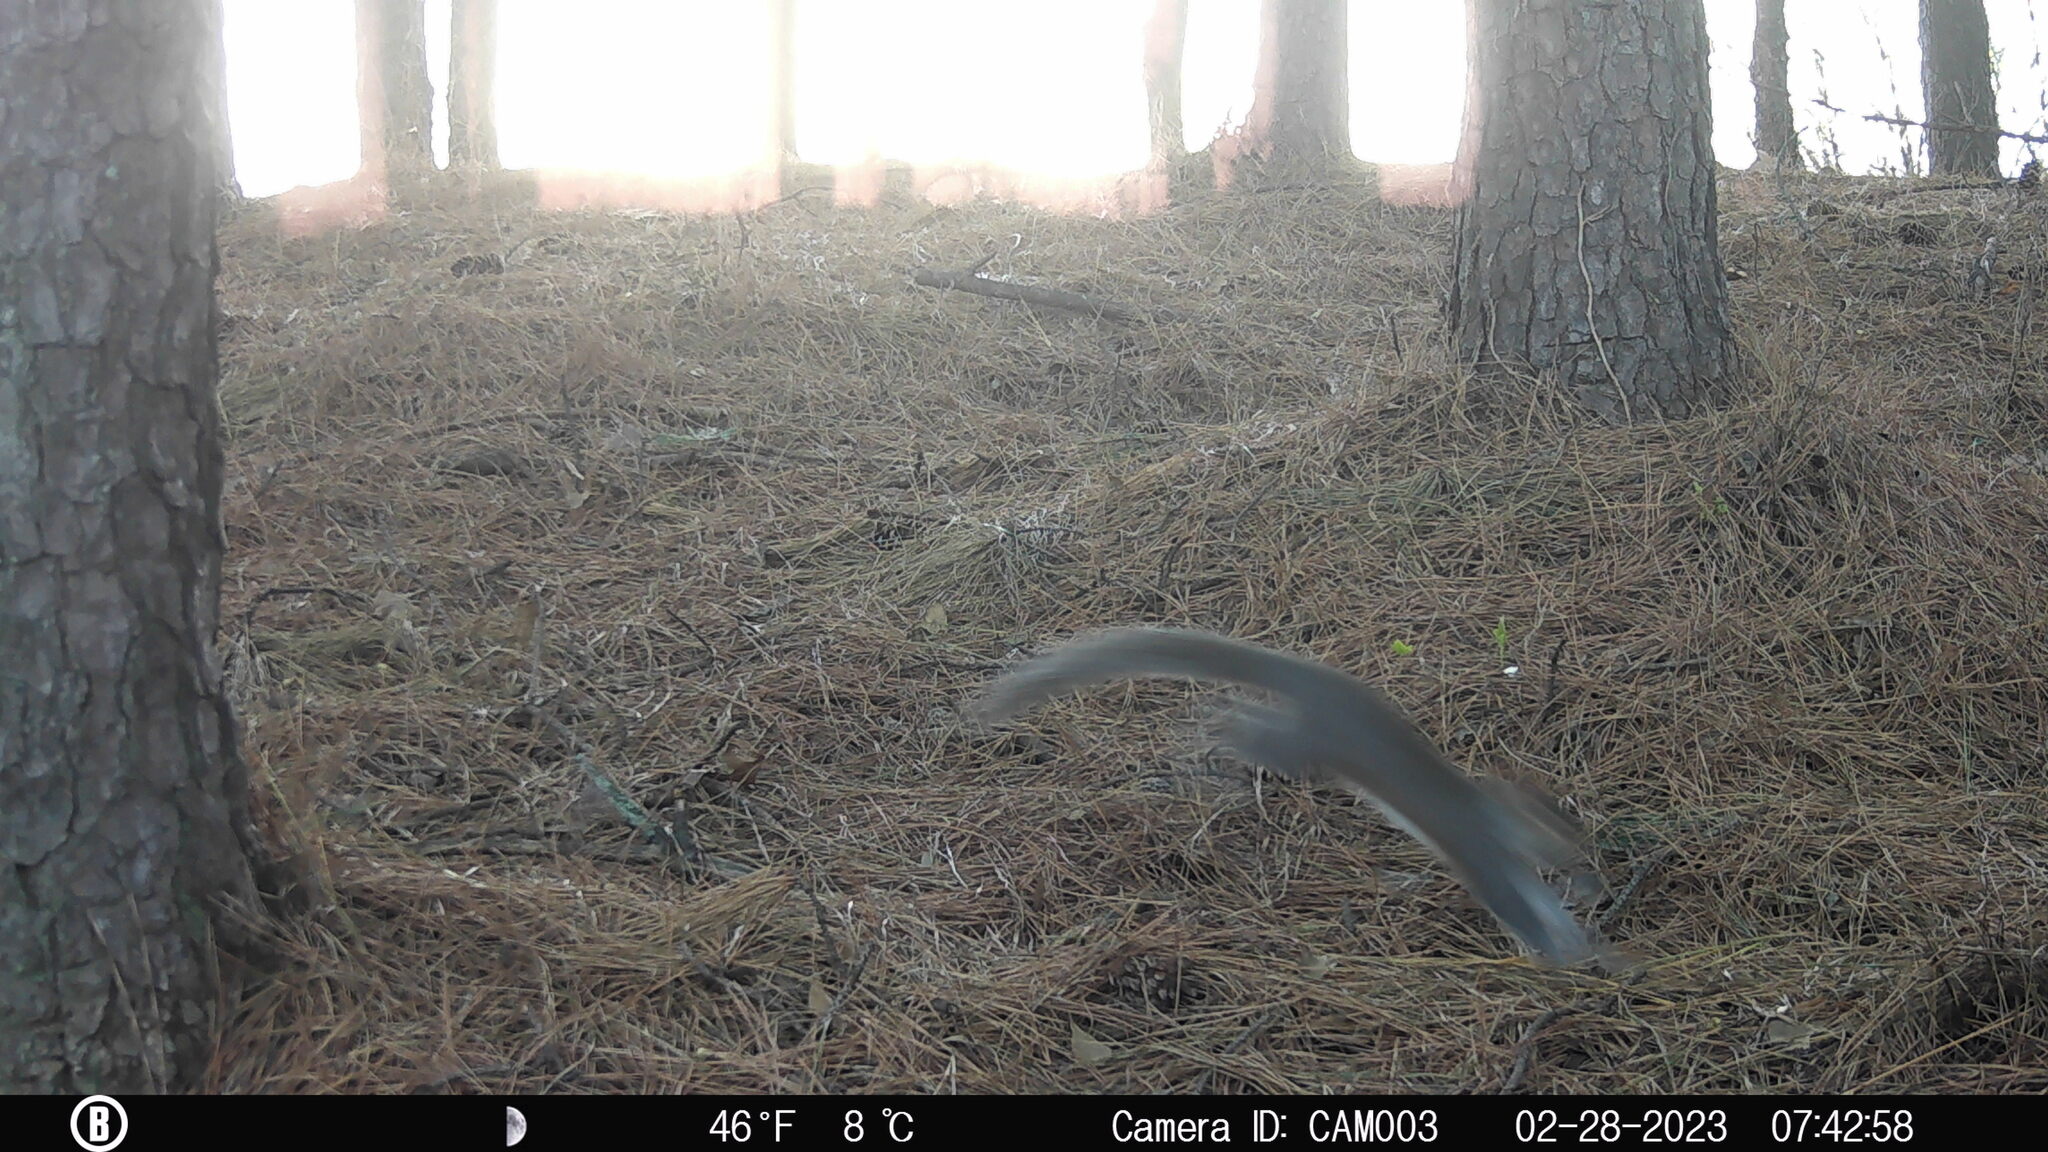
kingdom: Animalia
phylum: Chordata
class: Mammalia
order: Rodentia
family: Sciuridae
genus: Sciurus
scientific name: Sciurus carolinensis
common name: Eastern gray squirrel
